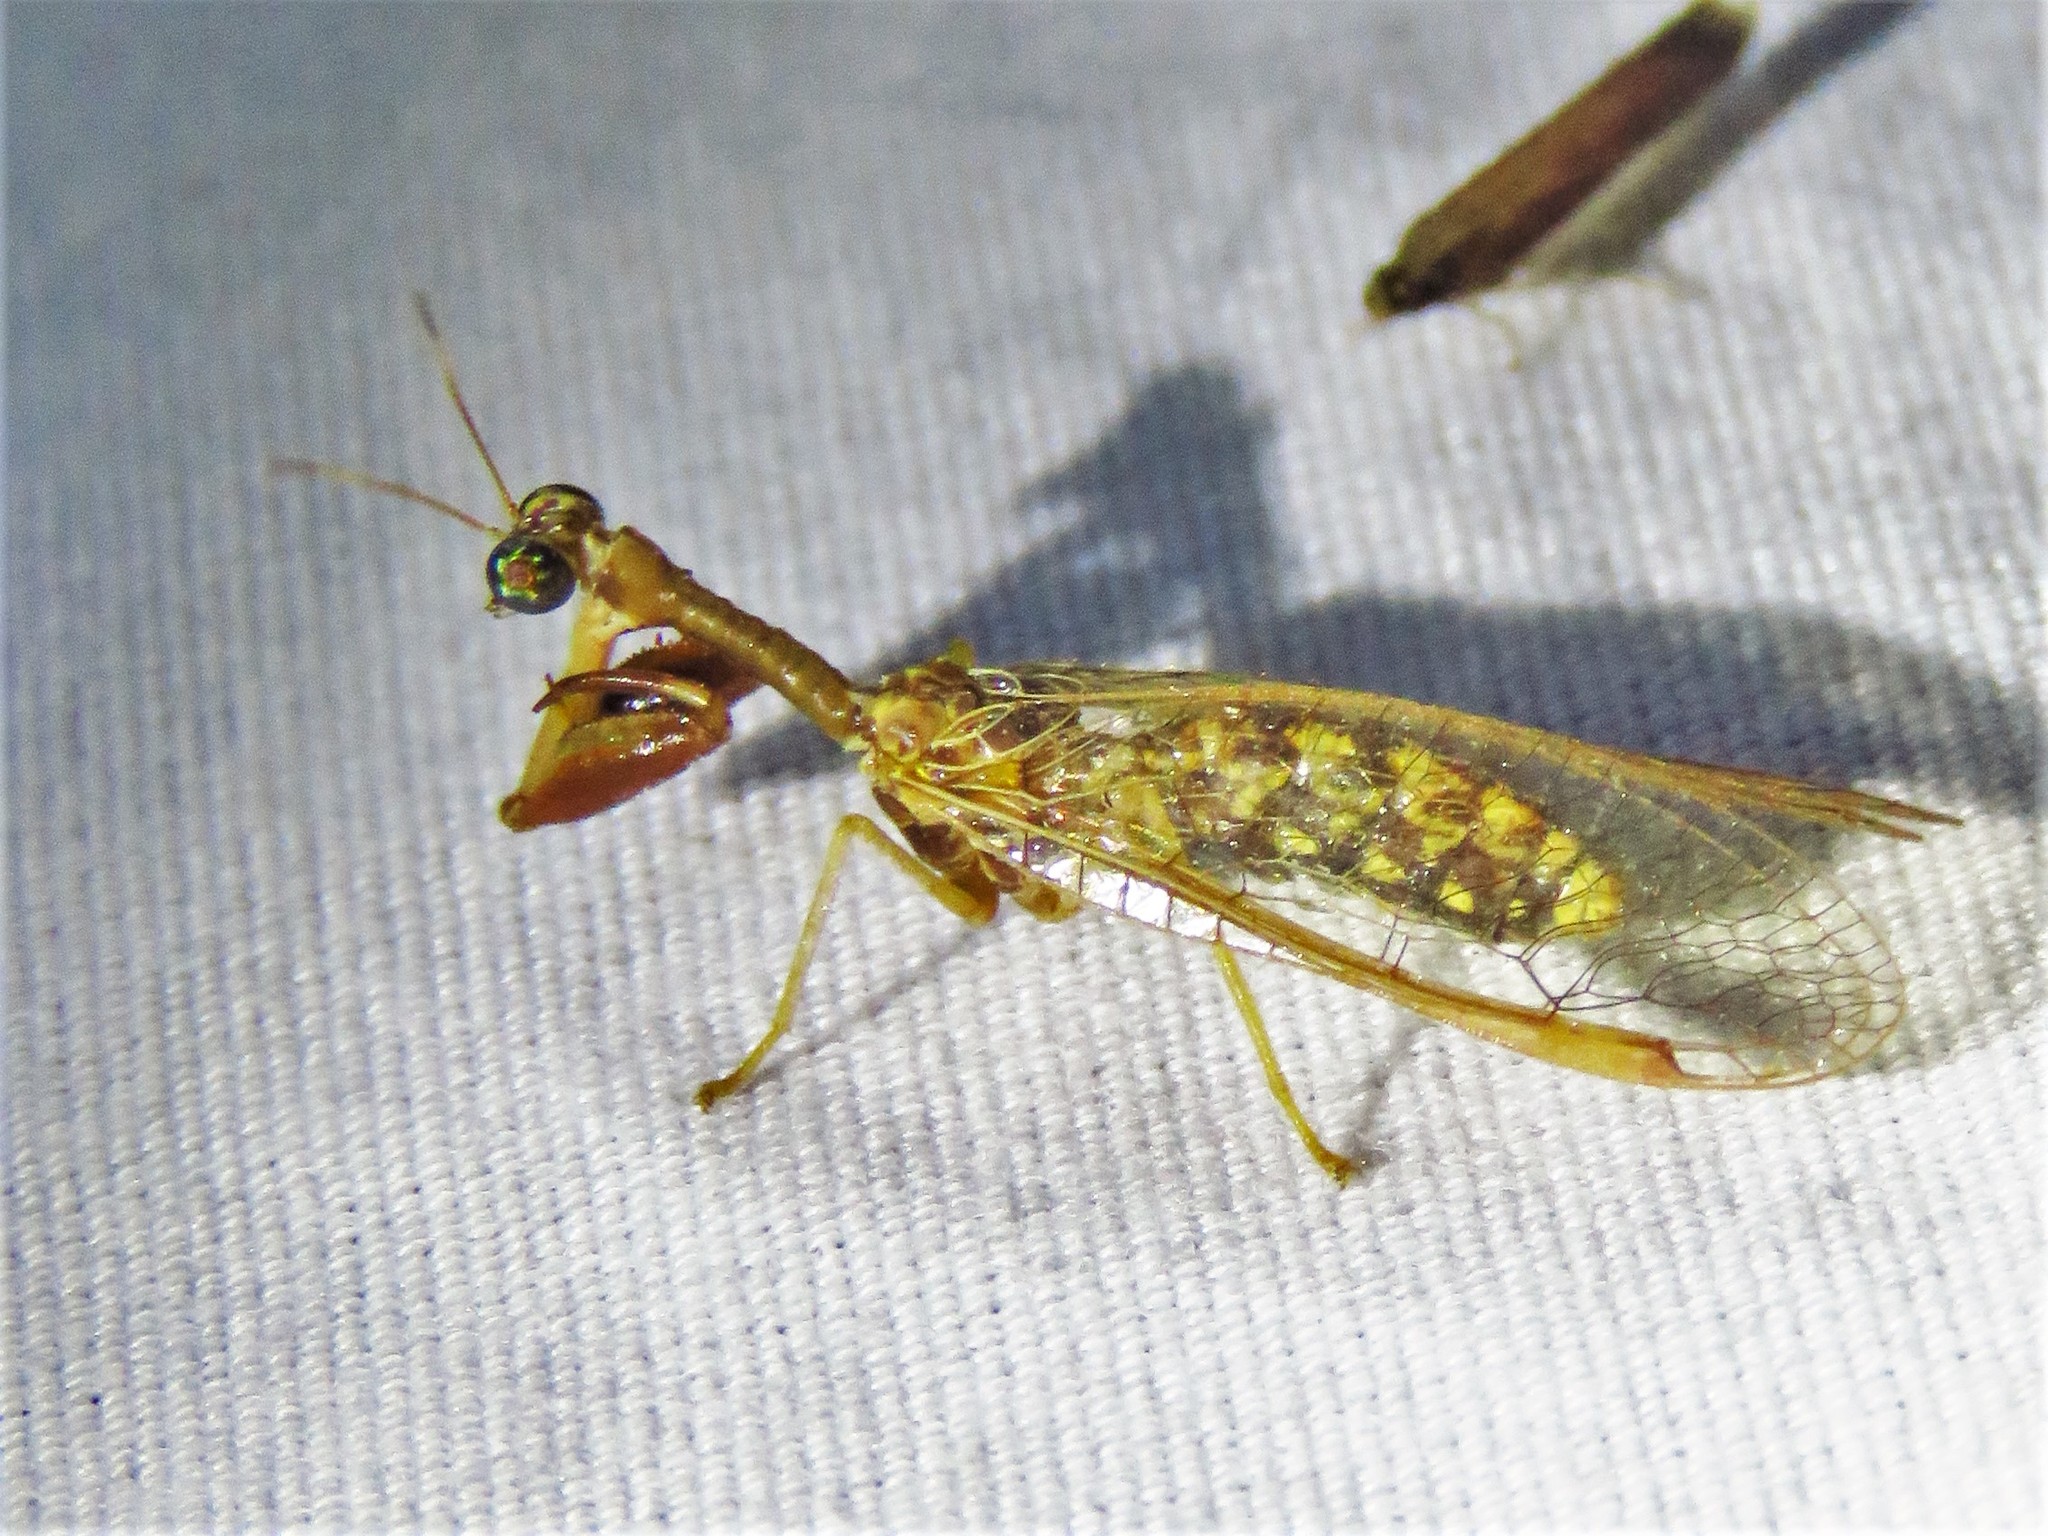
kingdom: Animalia
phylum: Arthropoda
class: Insecta
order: Neuroptera
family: Mantispidae
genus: Dicromantispa
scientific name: Dicromantispa sayi
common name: Say's mantidfly
